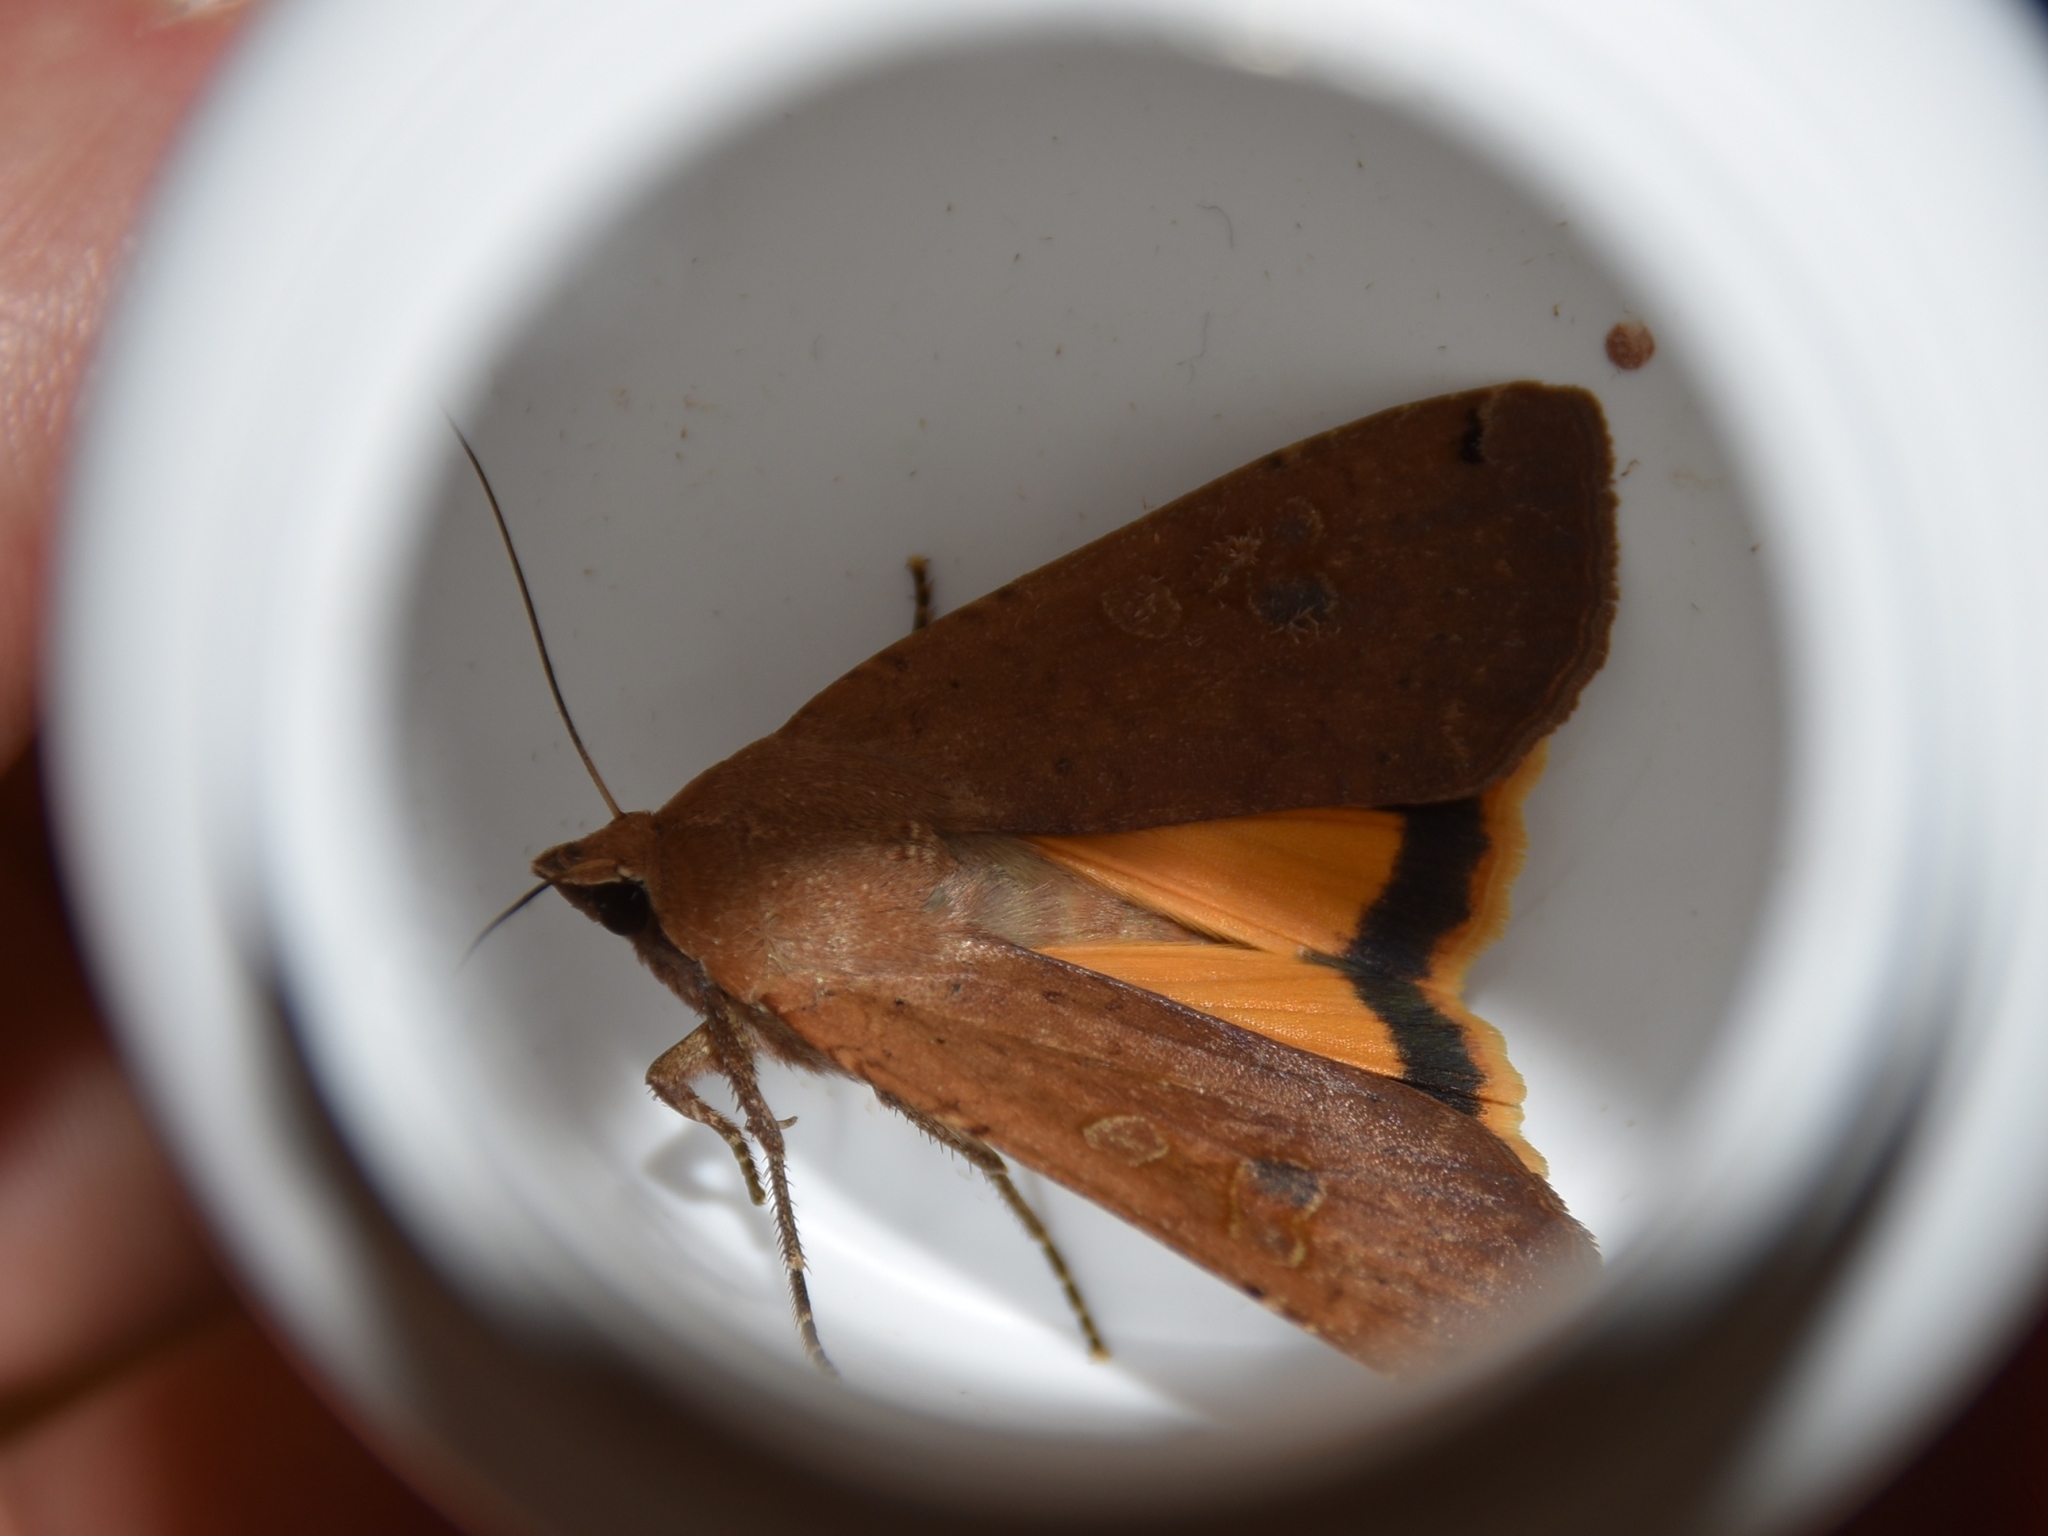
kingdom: Animalia
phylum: Arthropoda
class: Insecta
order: Lepidoptera
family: Noctuidae
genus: Noctua
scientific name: Noctua pronuba
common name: Large yellow underwing
